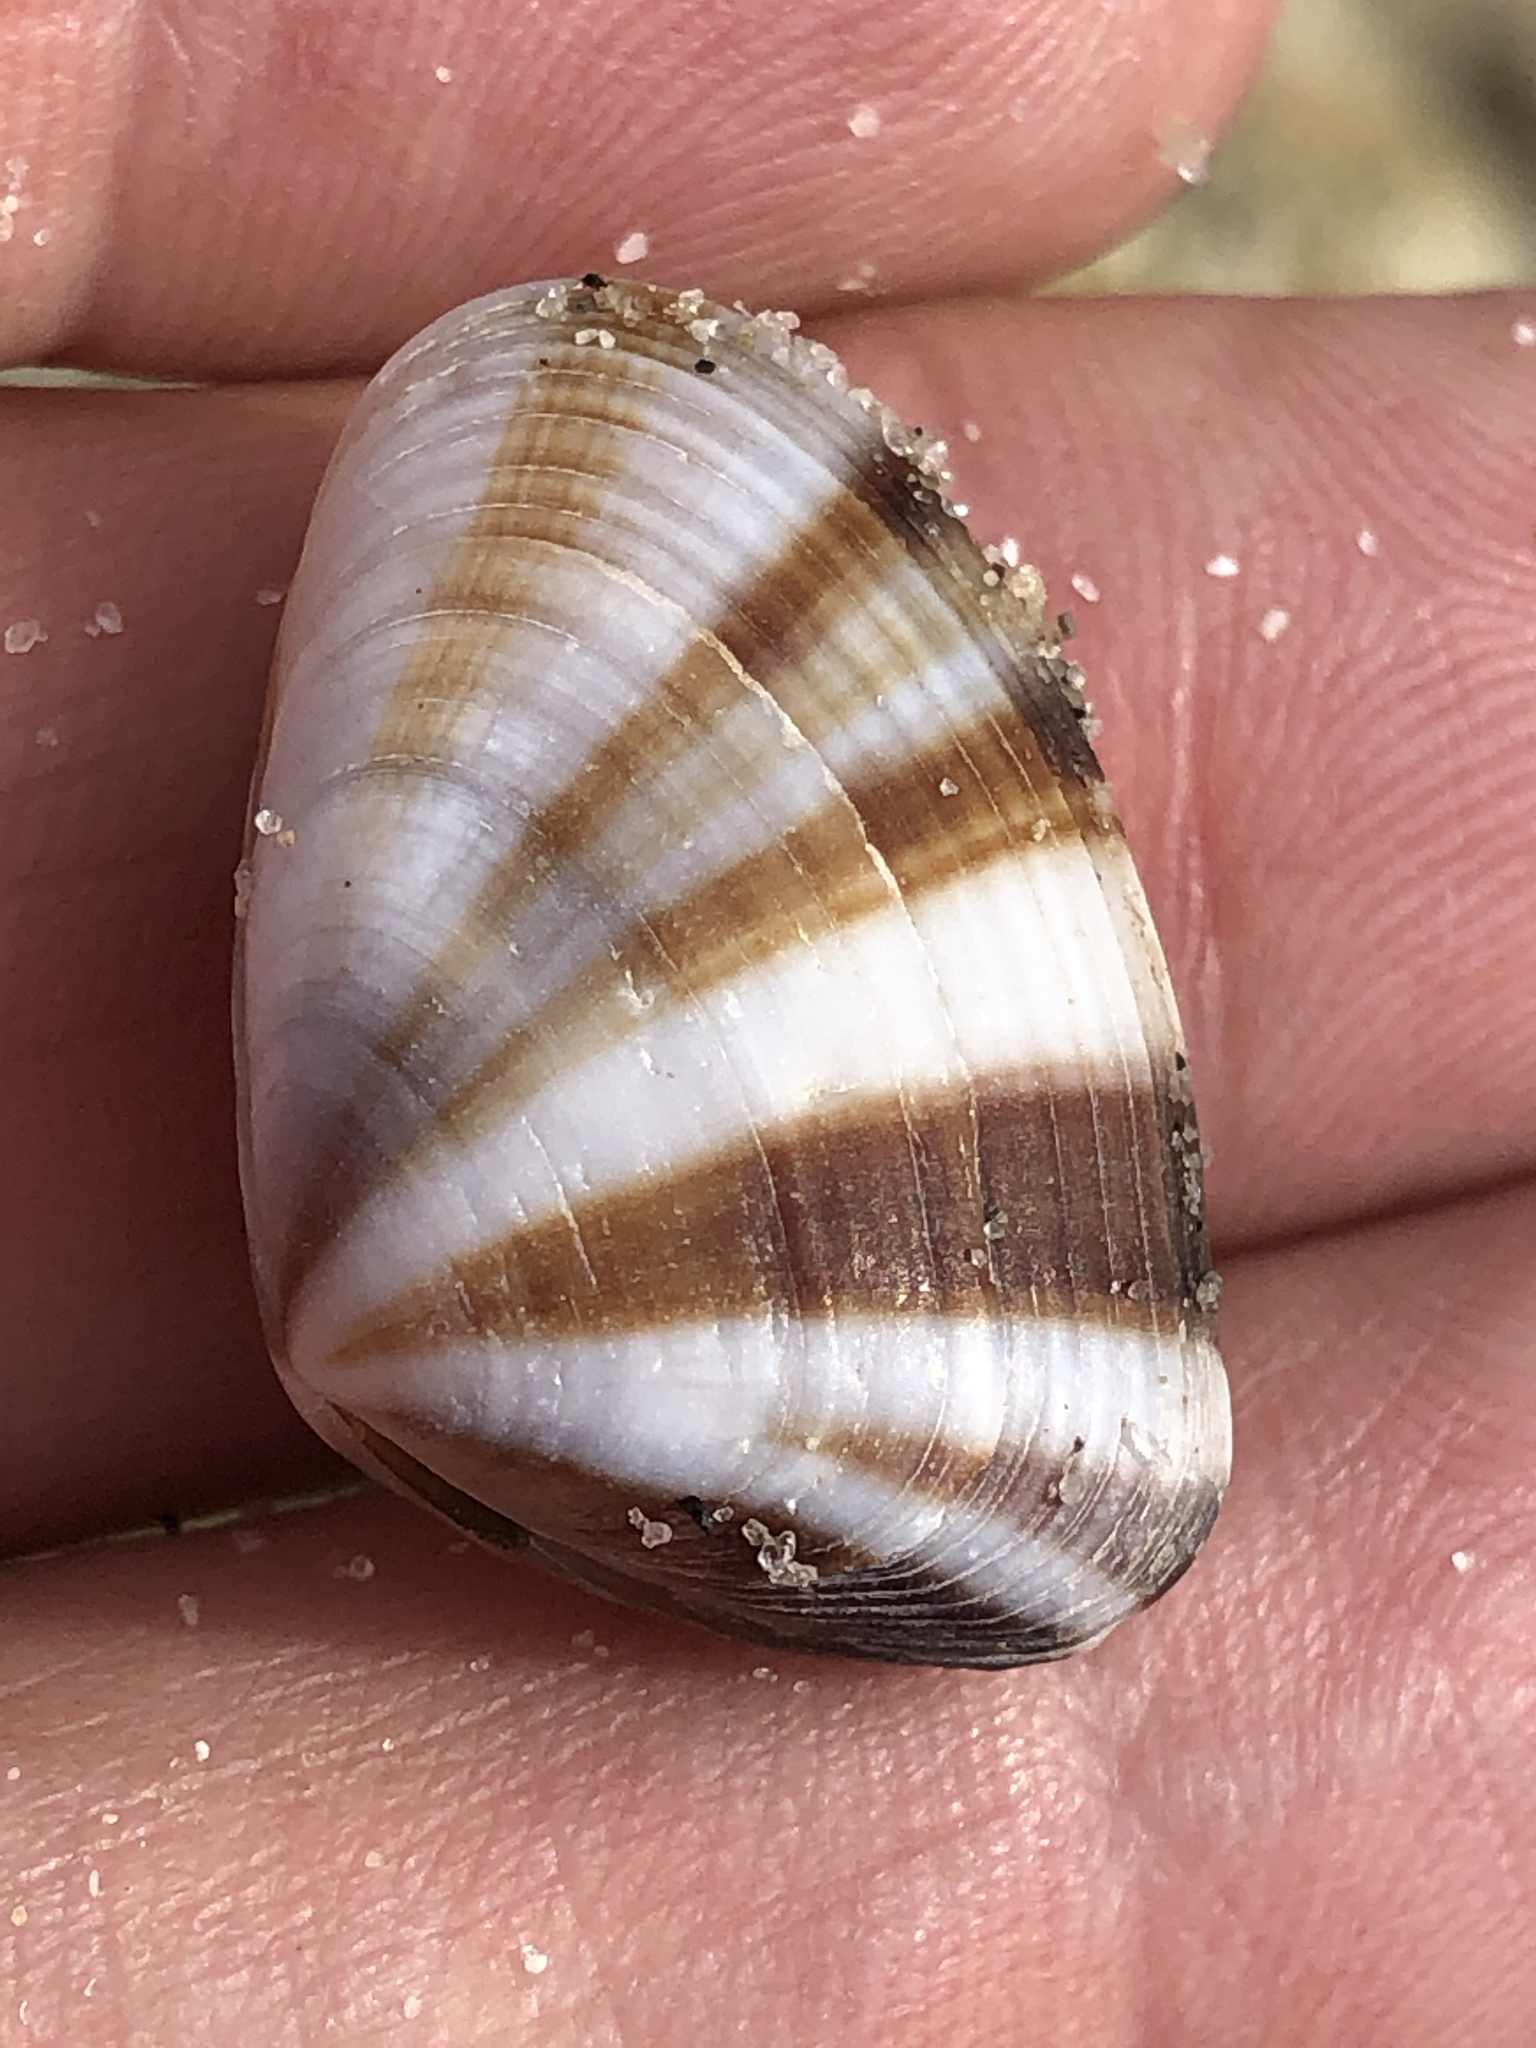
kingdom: Animalia
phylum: Mollusca
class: Bivalvia
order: Cardiida
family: Donacidae
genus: Donax
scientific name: Donax faba
